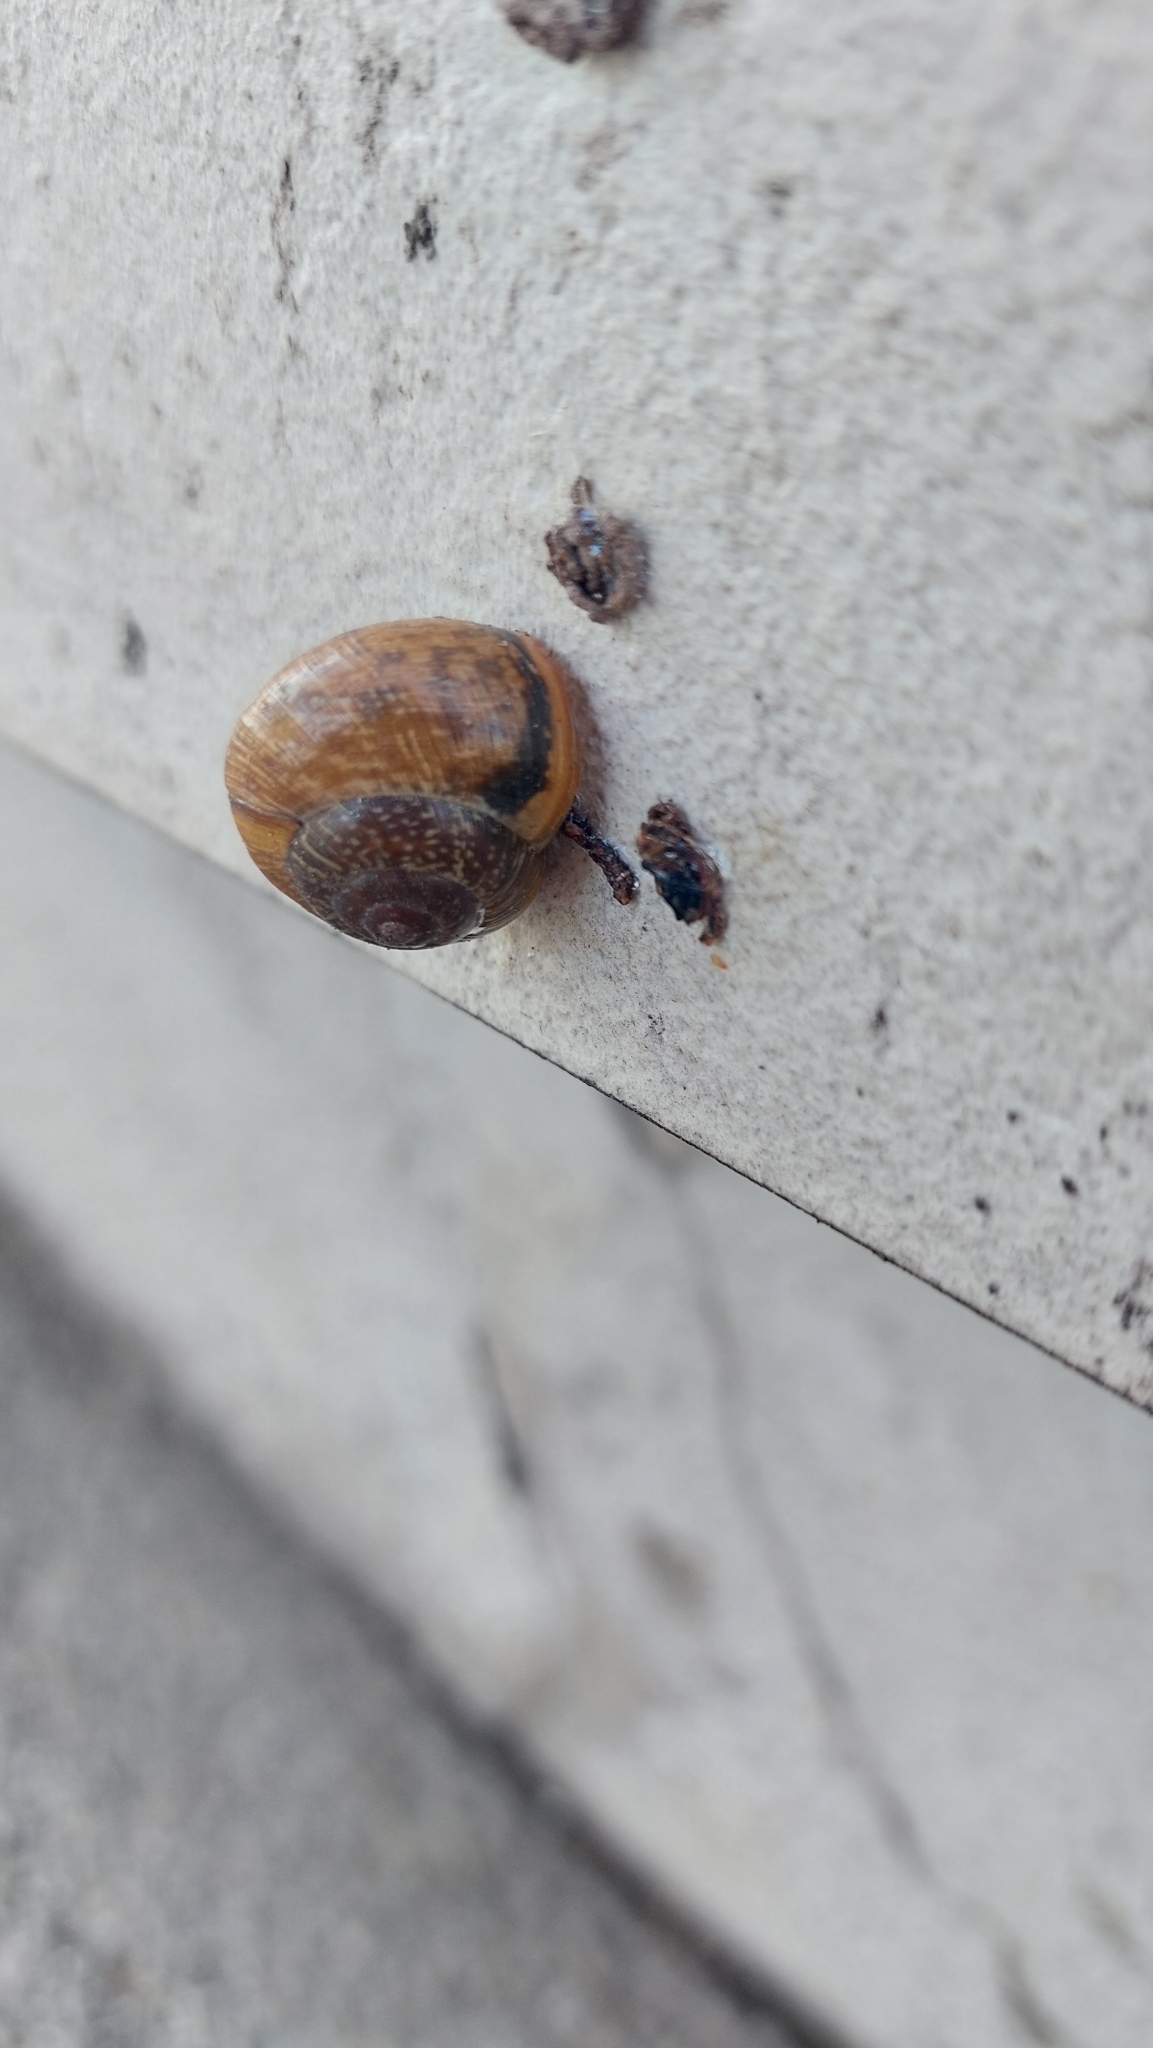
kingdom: Animalia
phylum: Mollusca
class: Gastropoda
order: Stylommatophora
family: Helicidae
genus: Arianta
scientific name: Arianta arbustorum
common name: Copse snail
